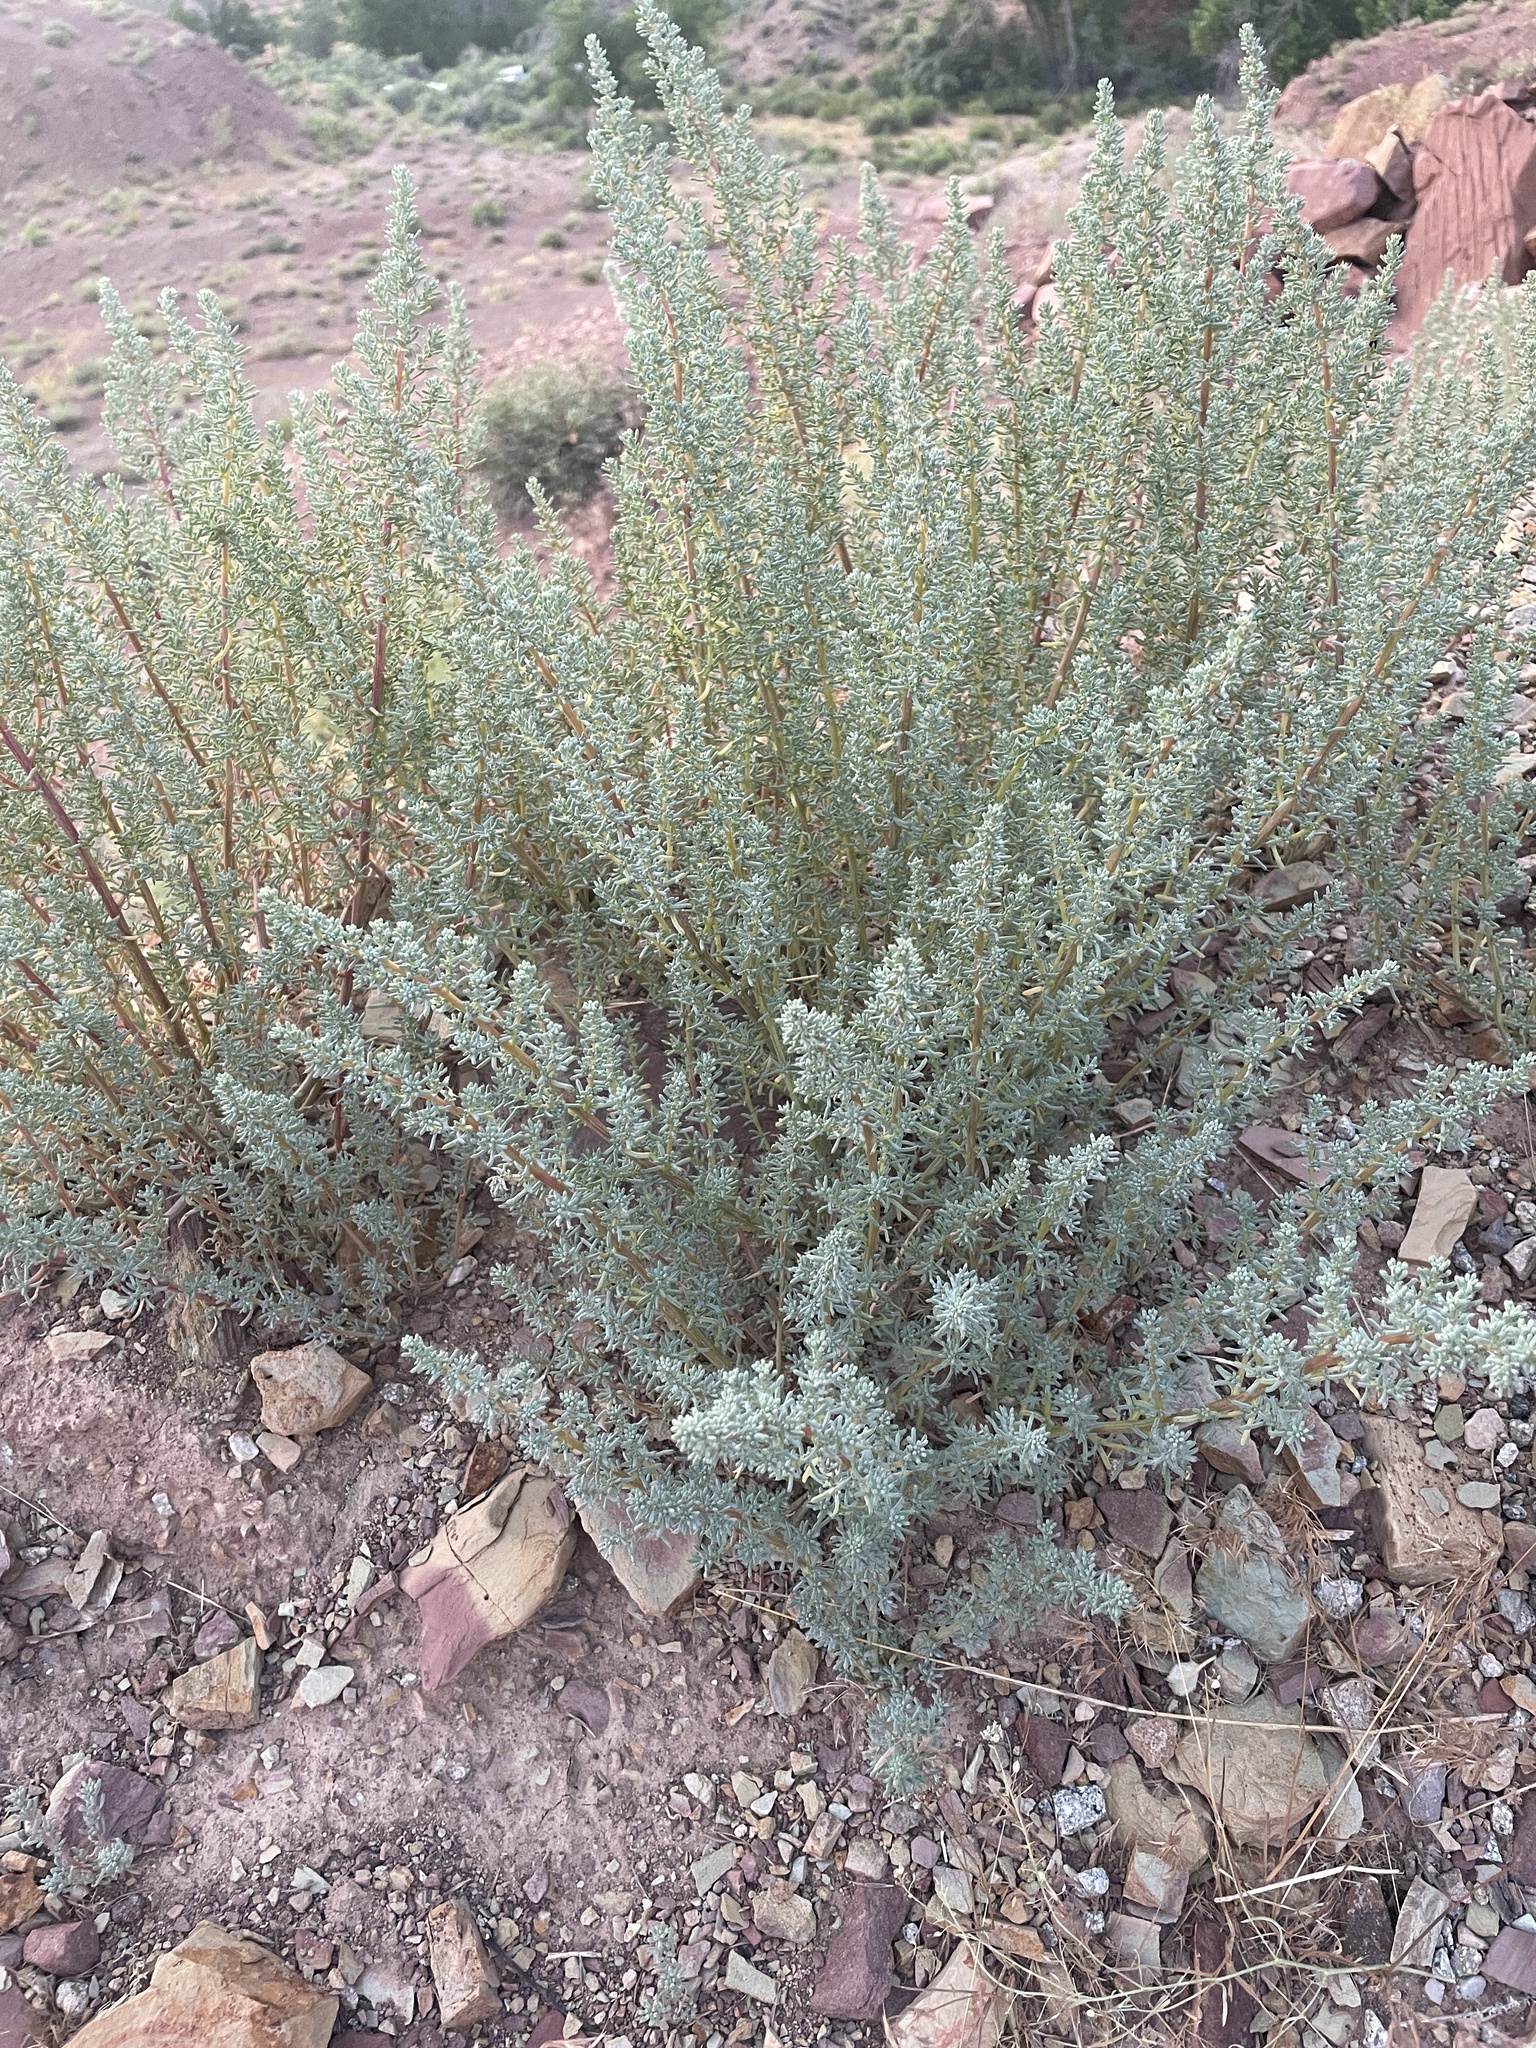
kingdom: Plantae
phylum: Tracheophyta
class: Magnoliopsida
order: Caryophyllales
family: Amaranthaceae
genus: Halogeton
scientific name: Halogeton glomeratus
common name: Saltlover
